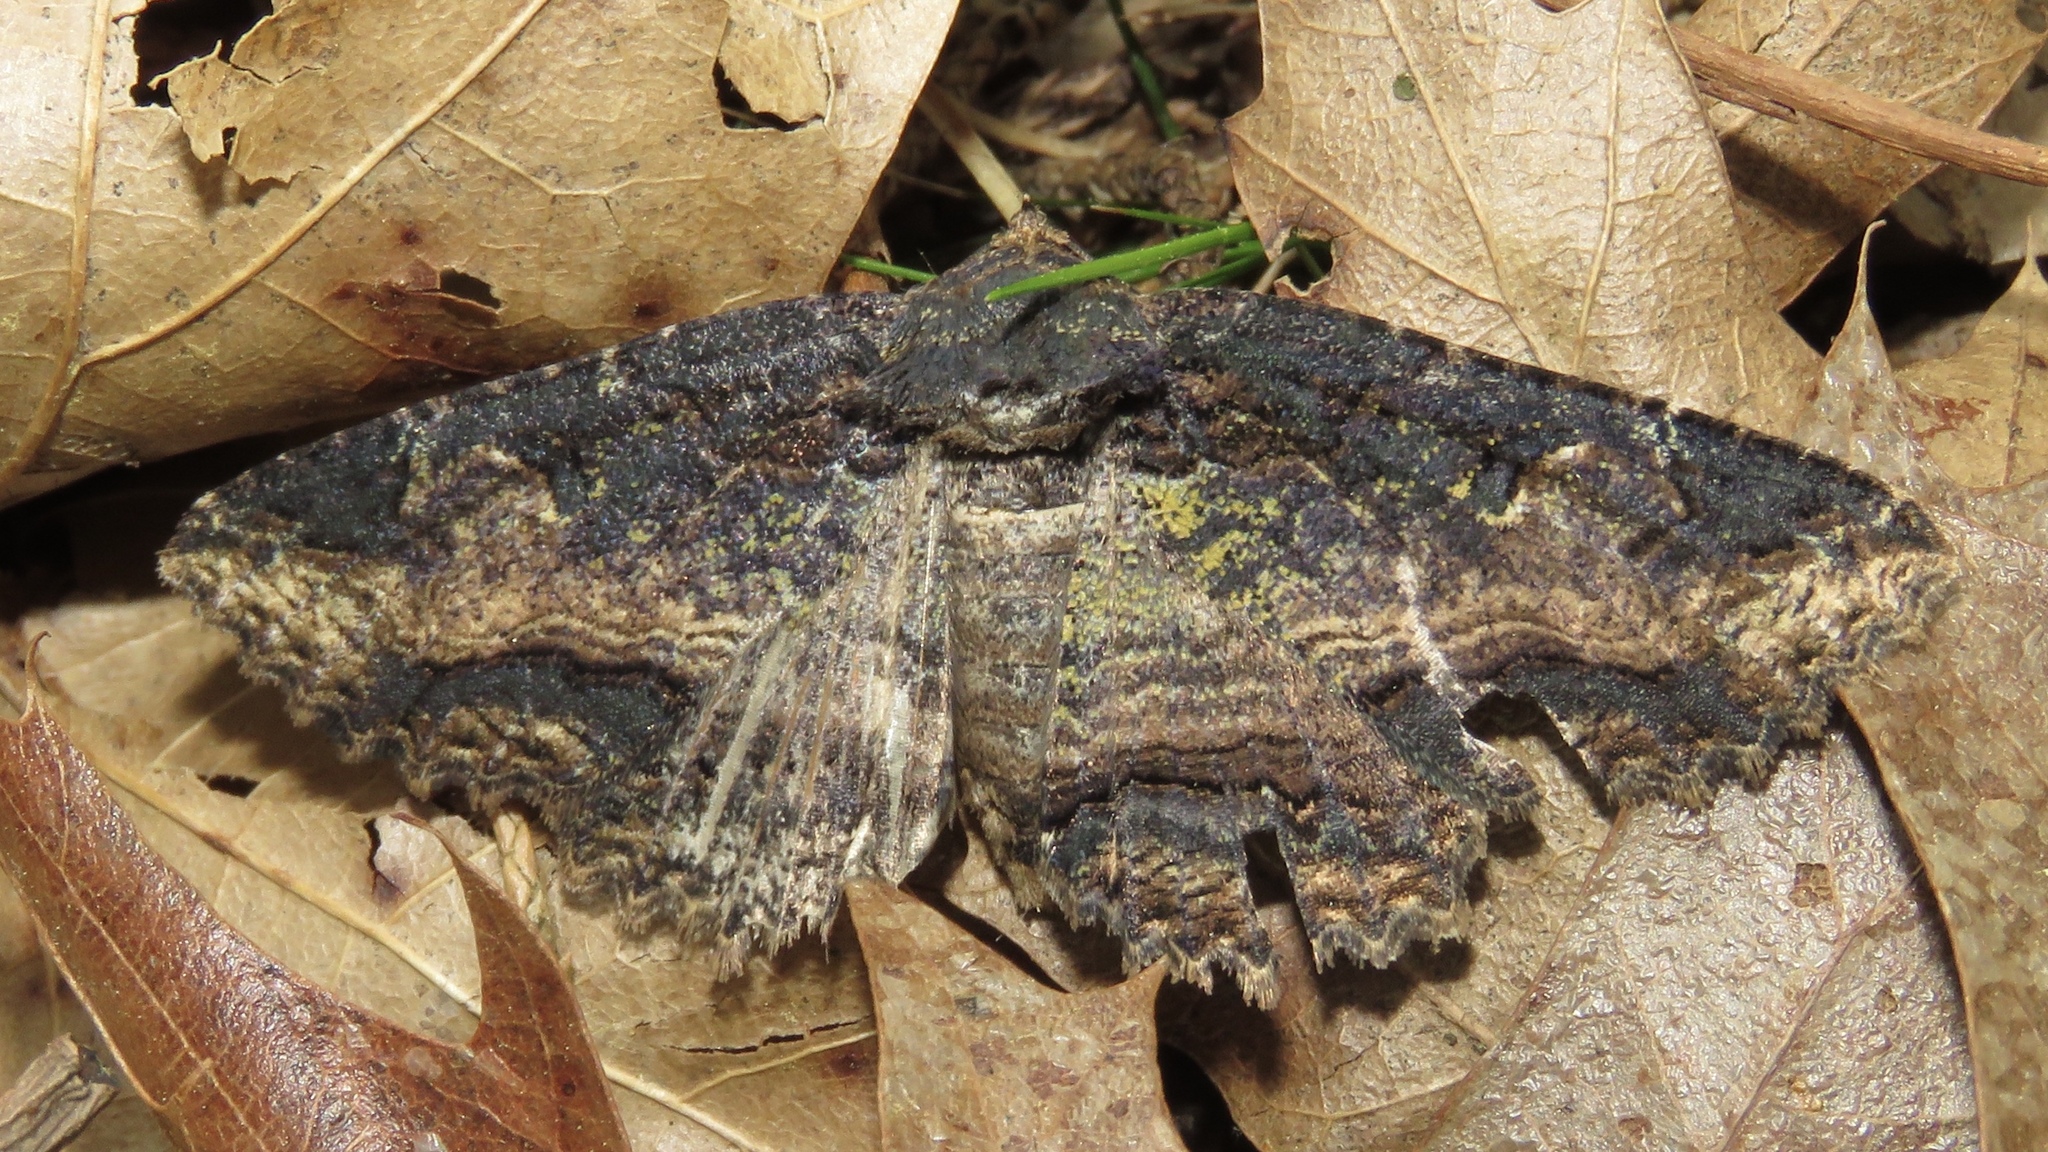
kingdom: Animalia
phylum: Arthropoda
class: Insecta
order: Lepidoptera
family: Erebidae
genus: Zale
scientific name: Zale minerea
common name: Colorful zale moth
